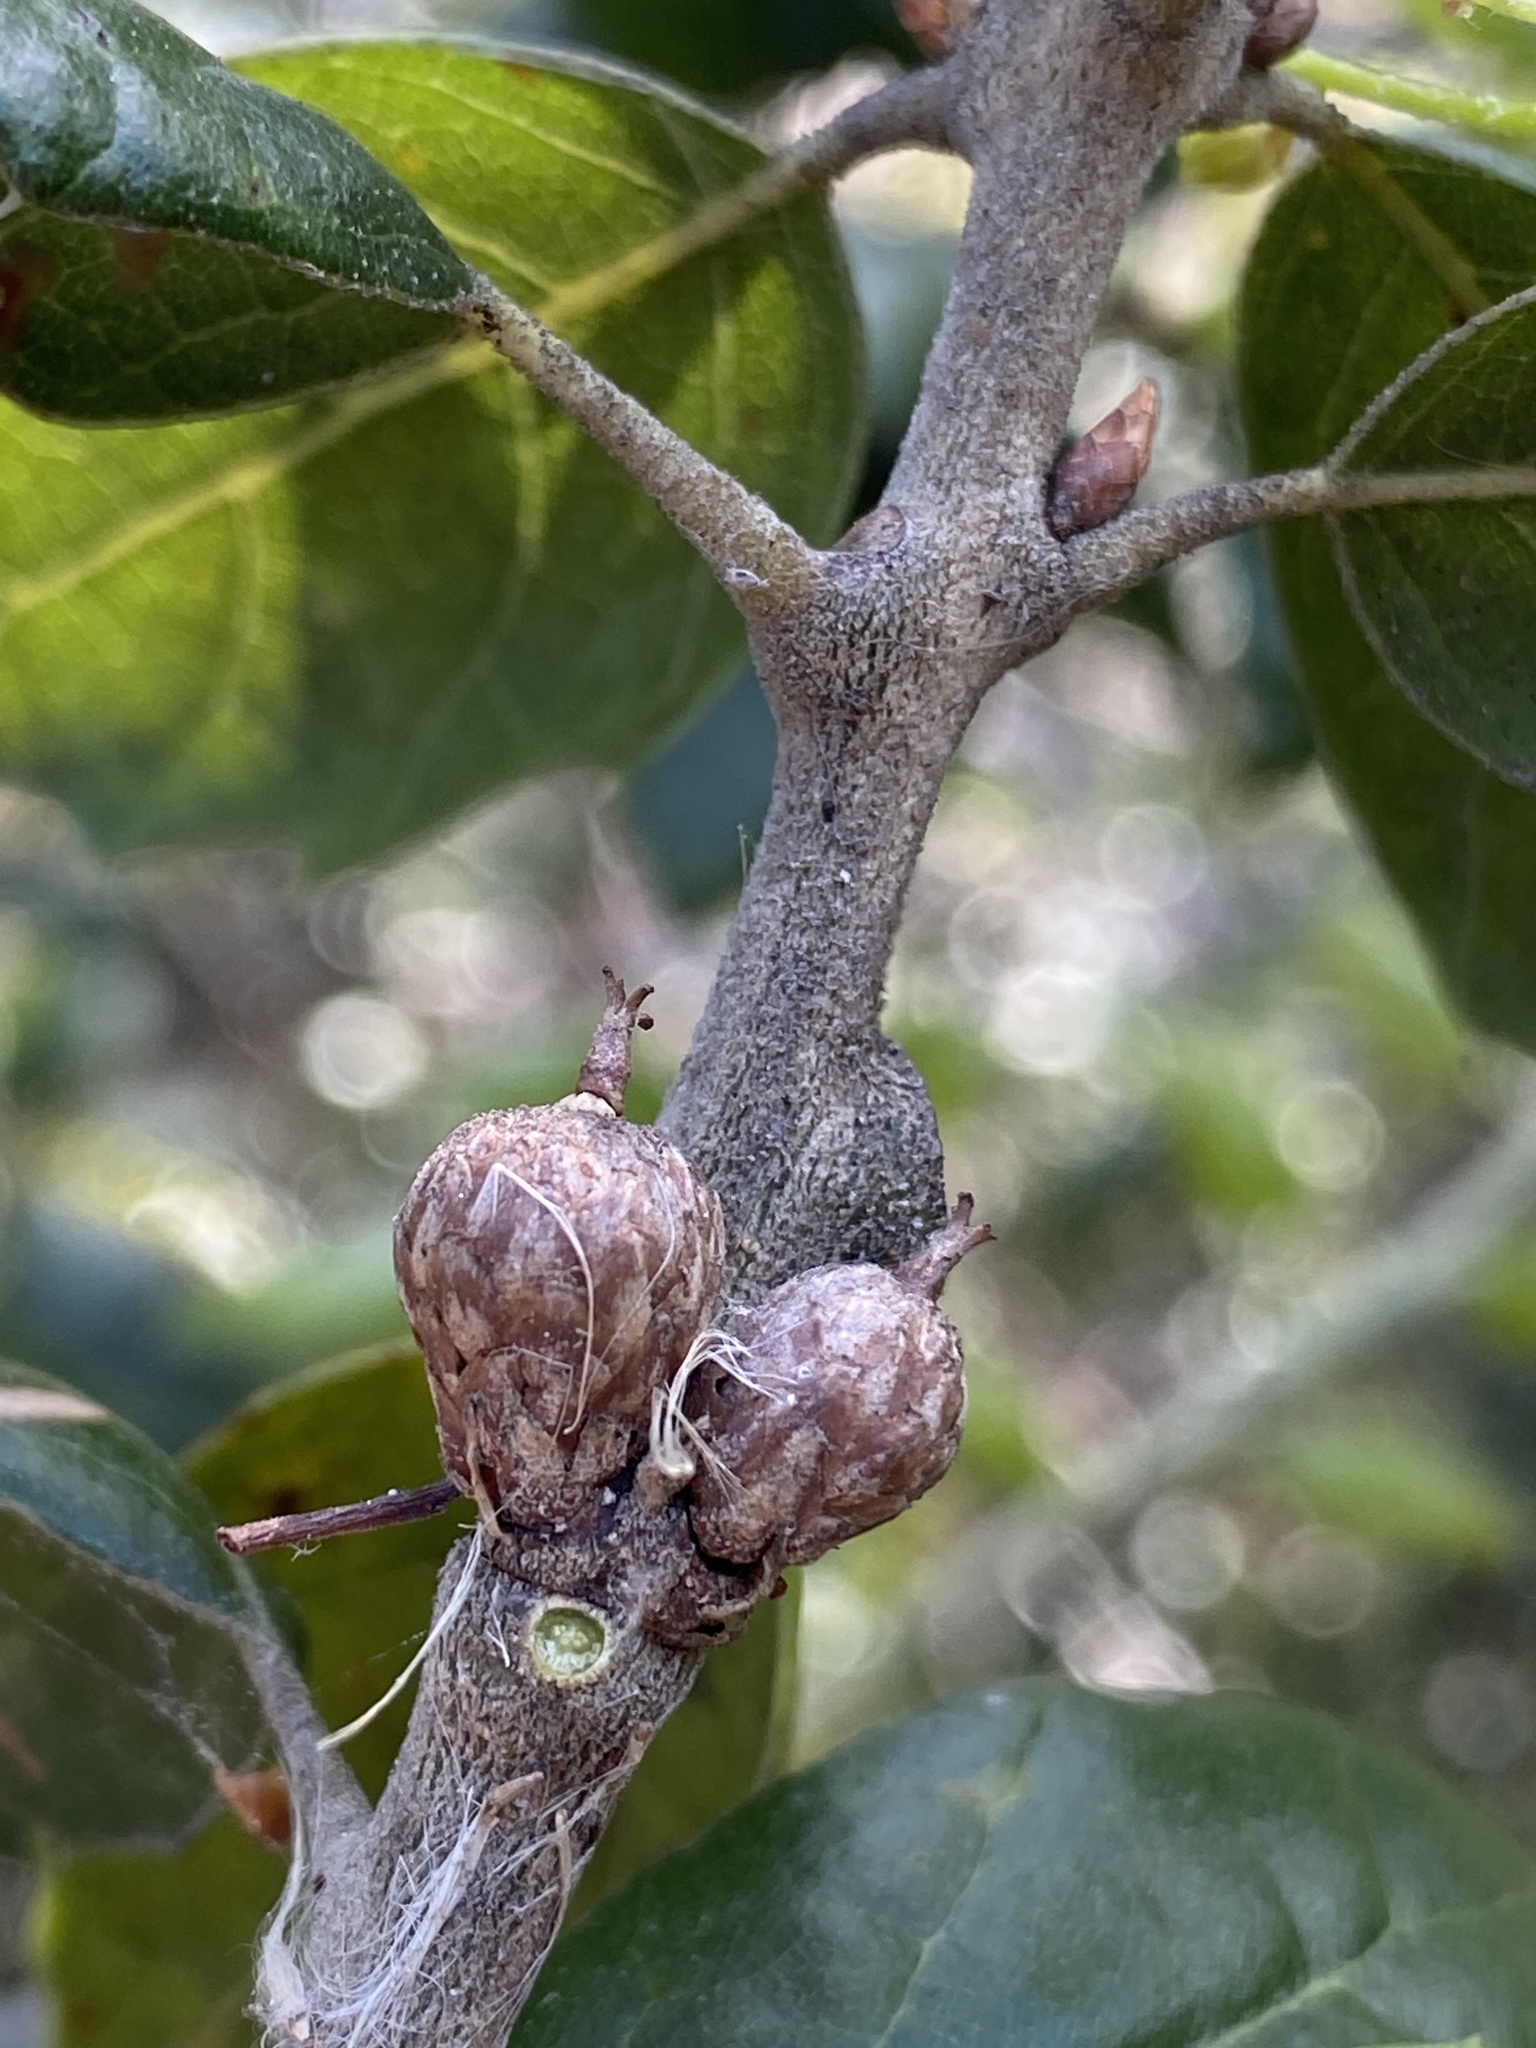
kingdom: Plantae
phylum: Tracheophyta
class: Magnoliopsida
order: Fagales
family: Fagaceae
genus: Quercus
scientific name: Quercus agrifolia
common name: California live oak
